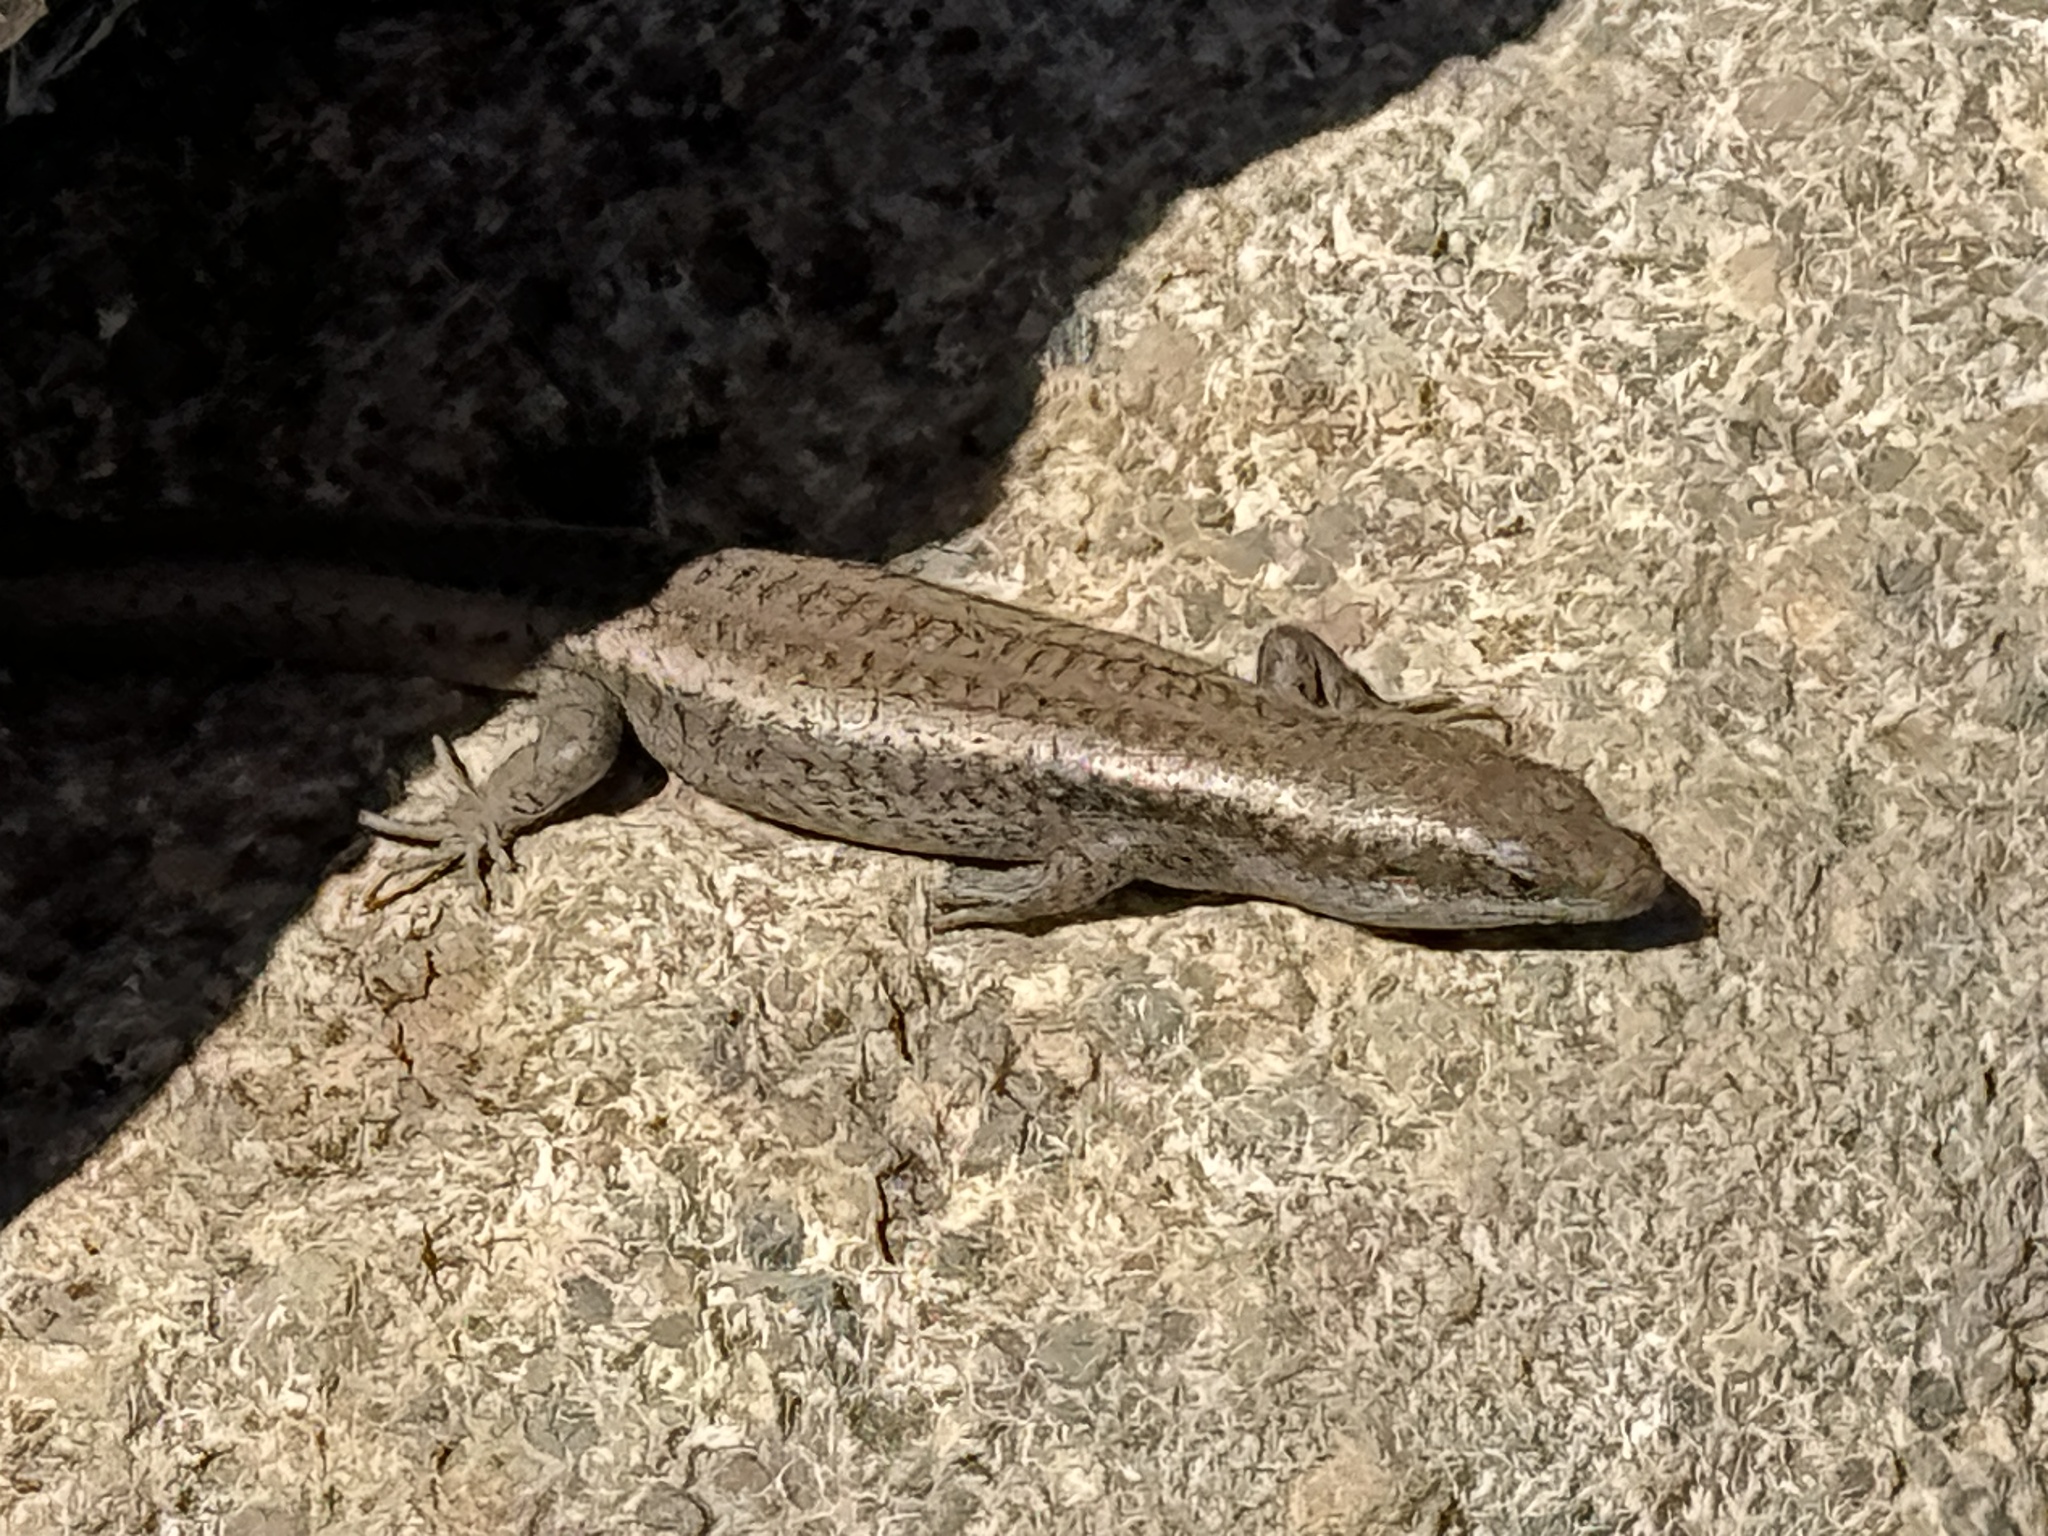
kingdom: Animalia
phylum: Chordata
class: Squamata
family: Scincidae
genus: Chioninia
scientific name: Chioninia fogoensis
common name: Fogo's mabuya
